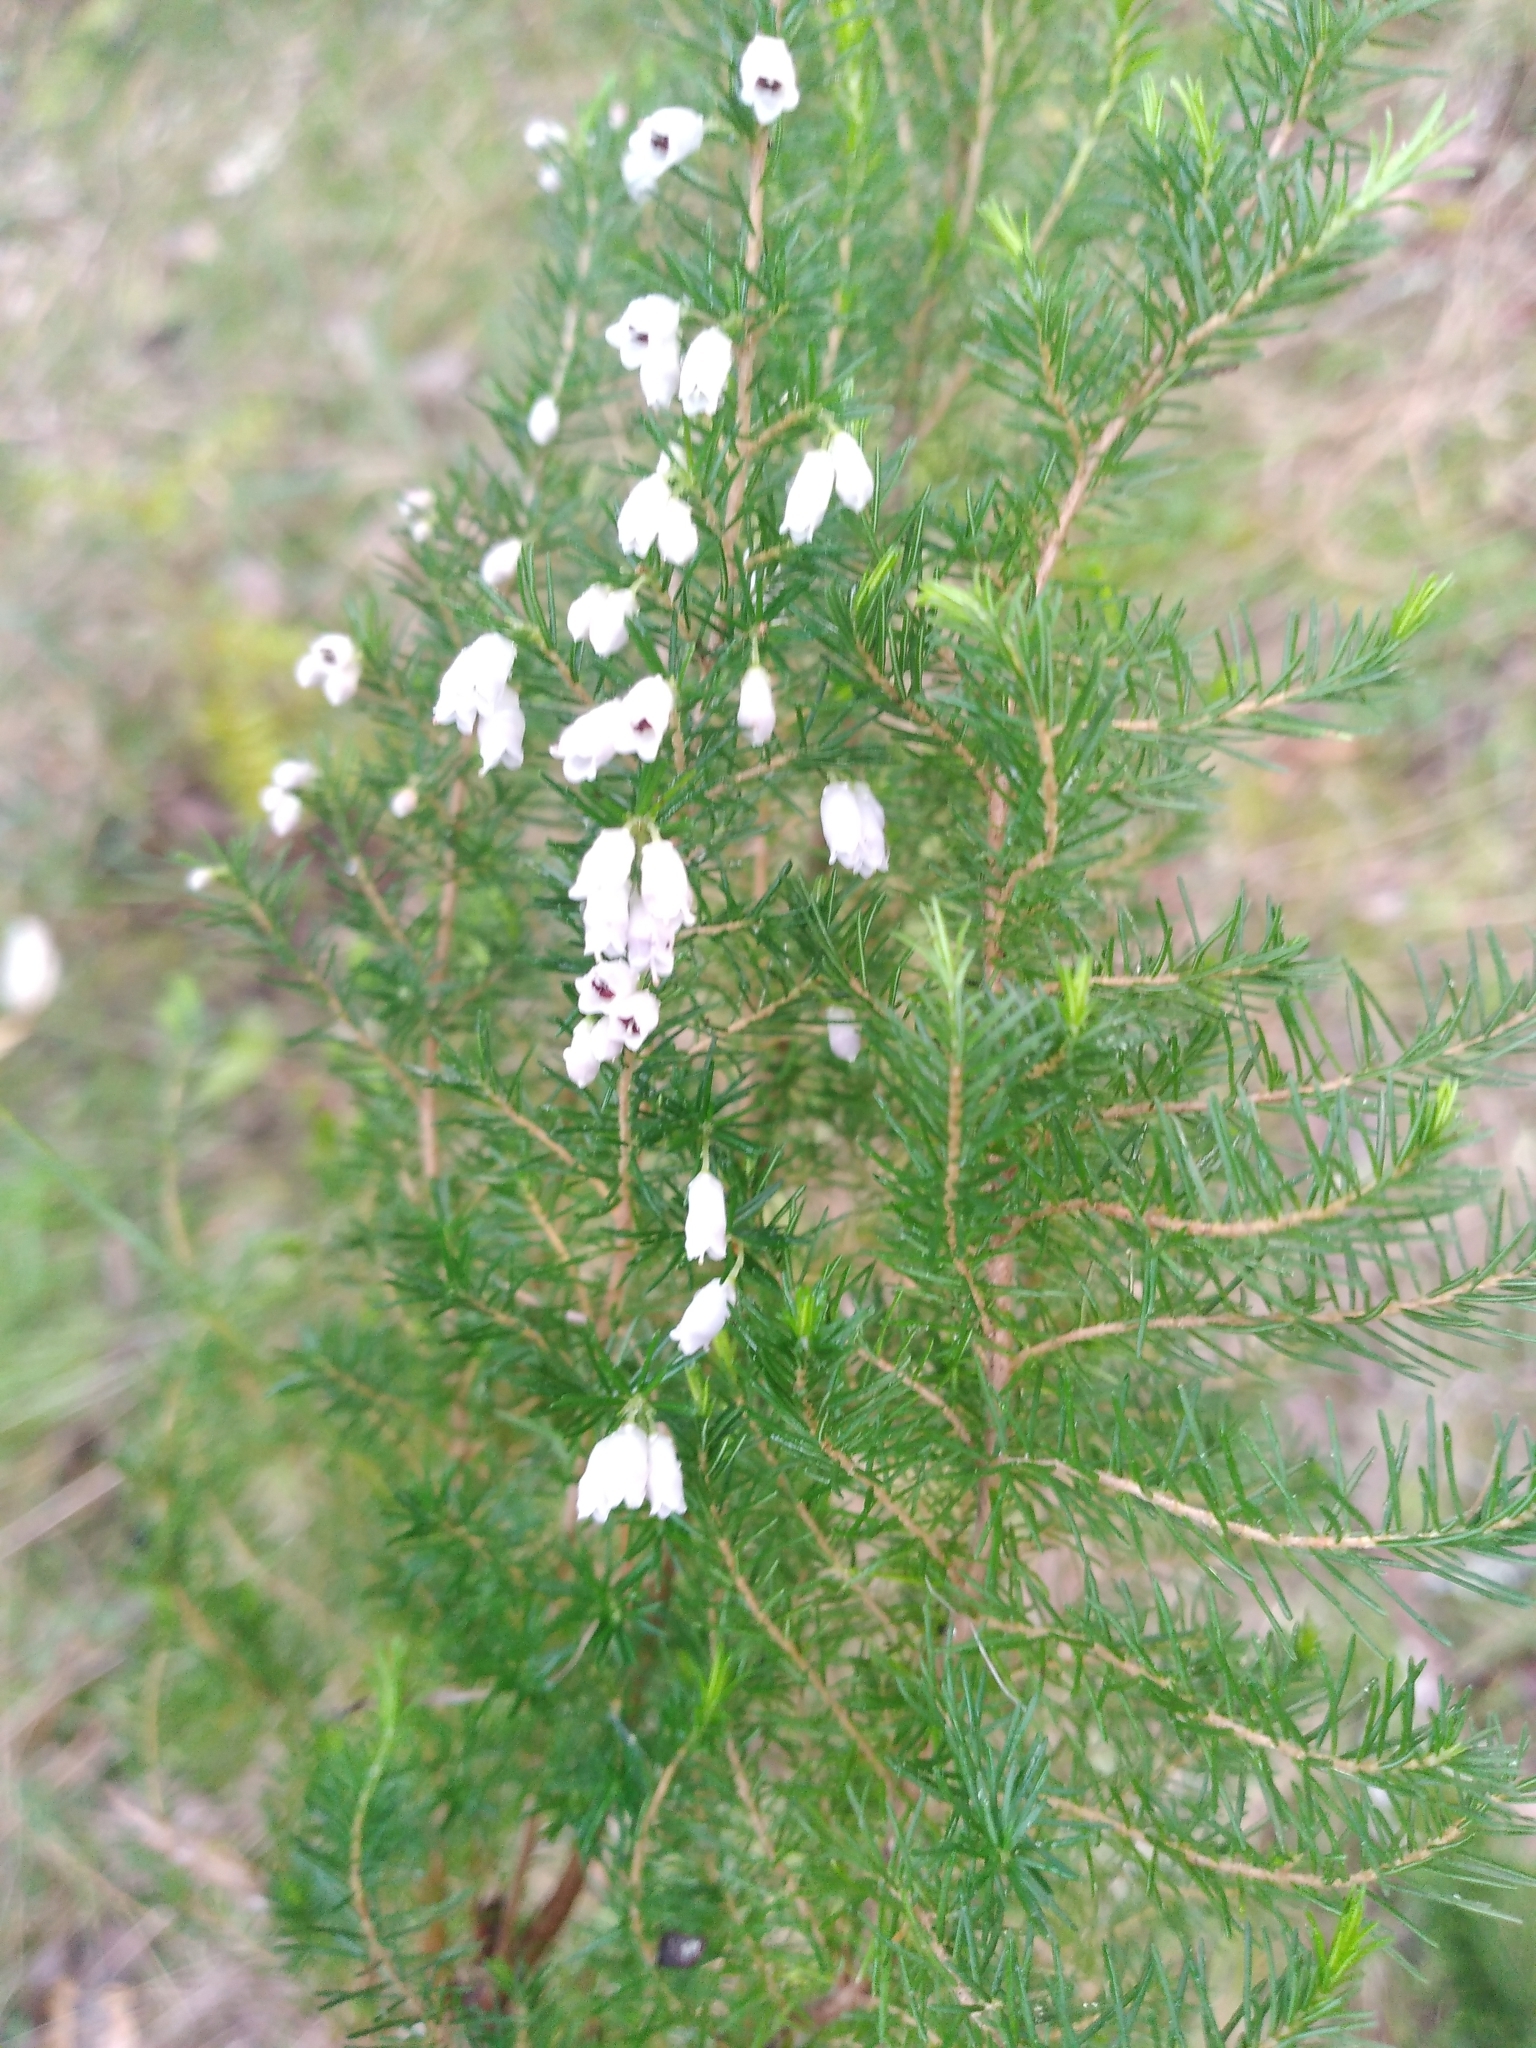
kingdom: Plantae
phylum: Tracheophyta
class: Magnoliopsida
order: Ericales
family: Ericaceae
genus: Erica
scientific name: Erica lusitanica
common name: Spanish heath
